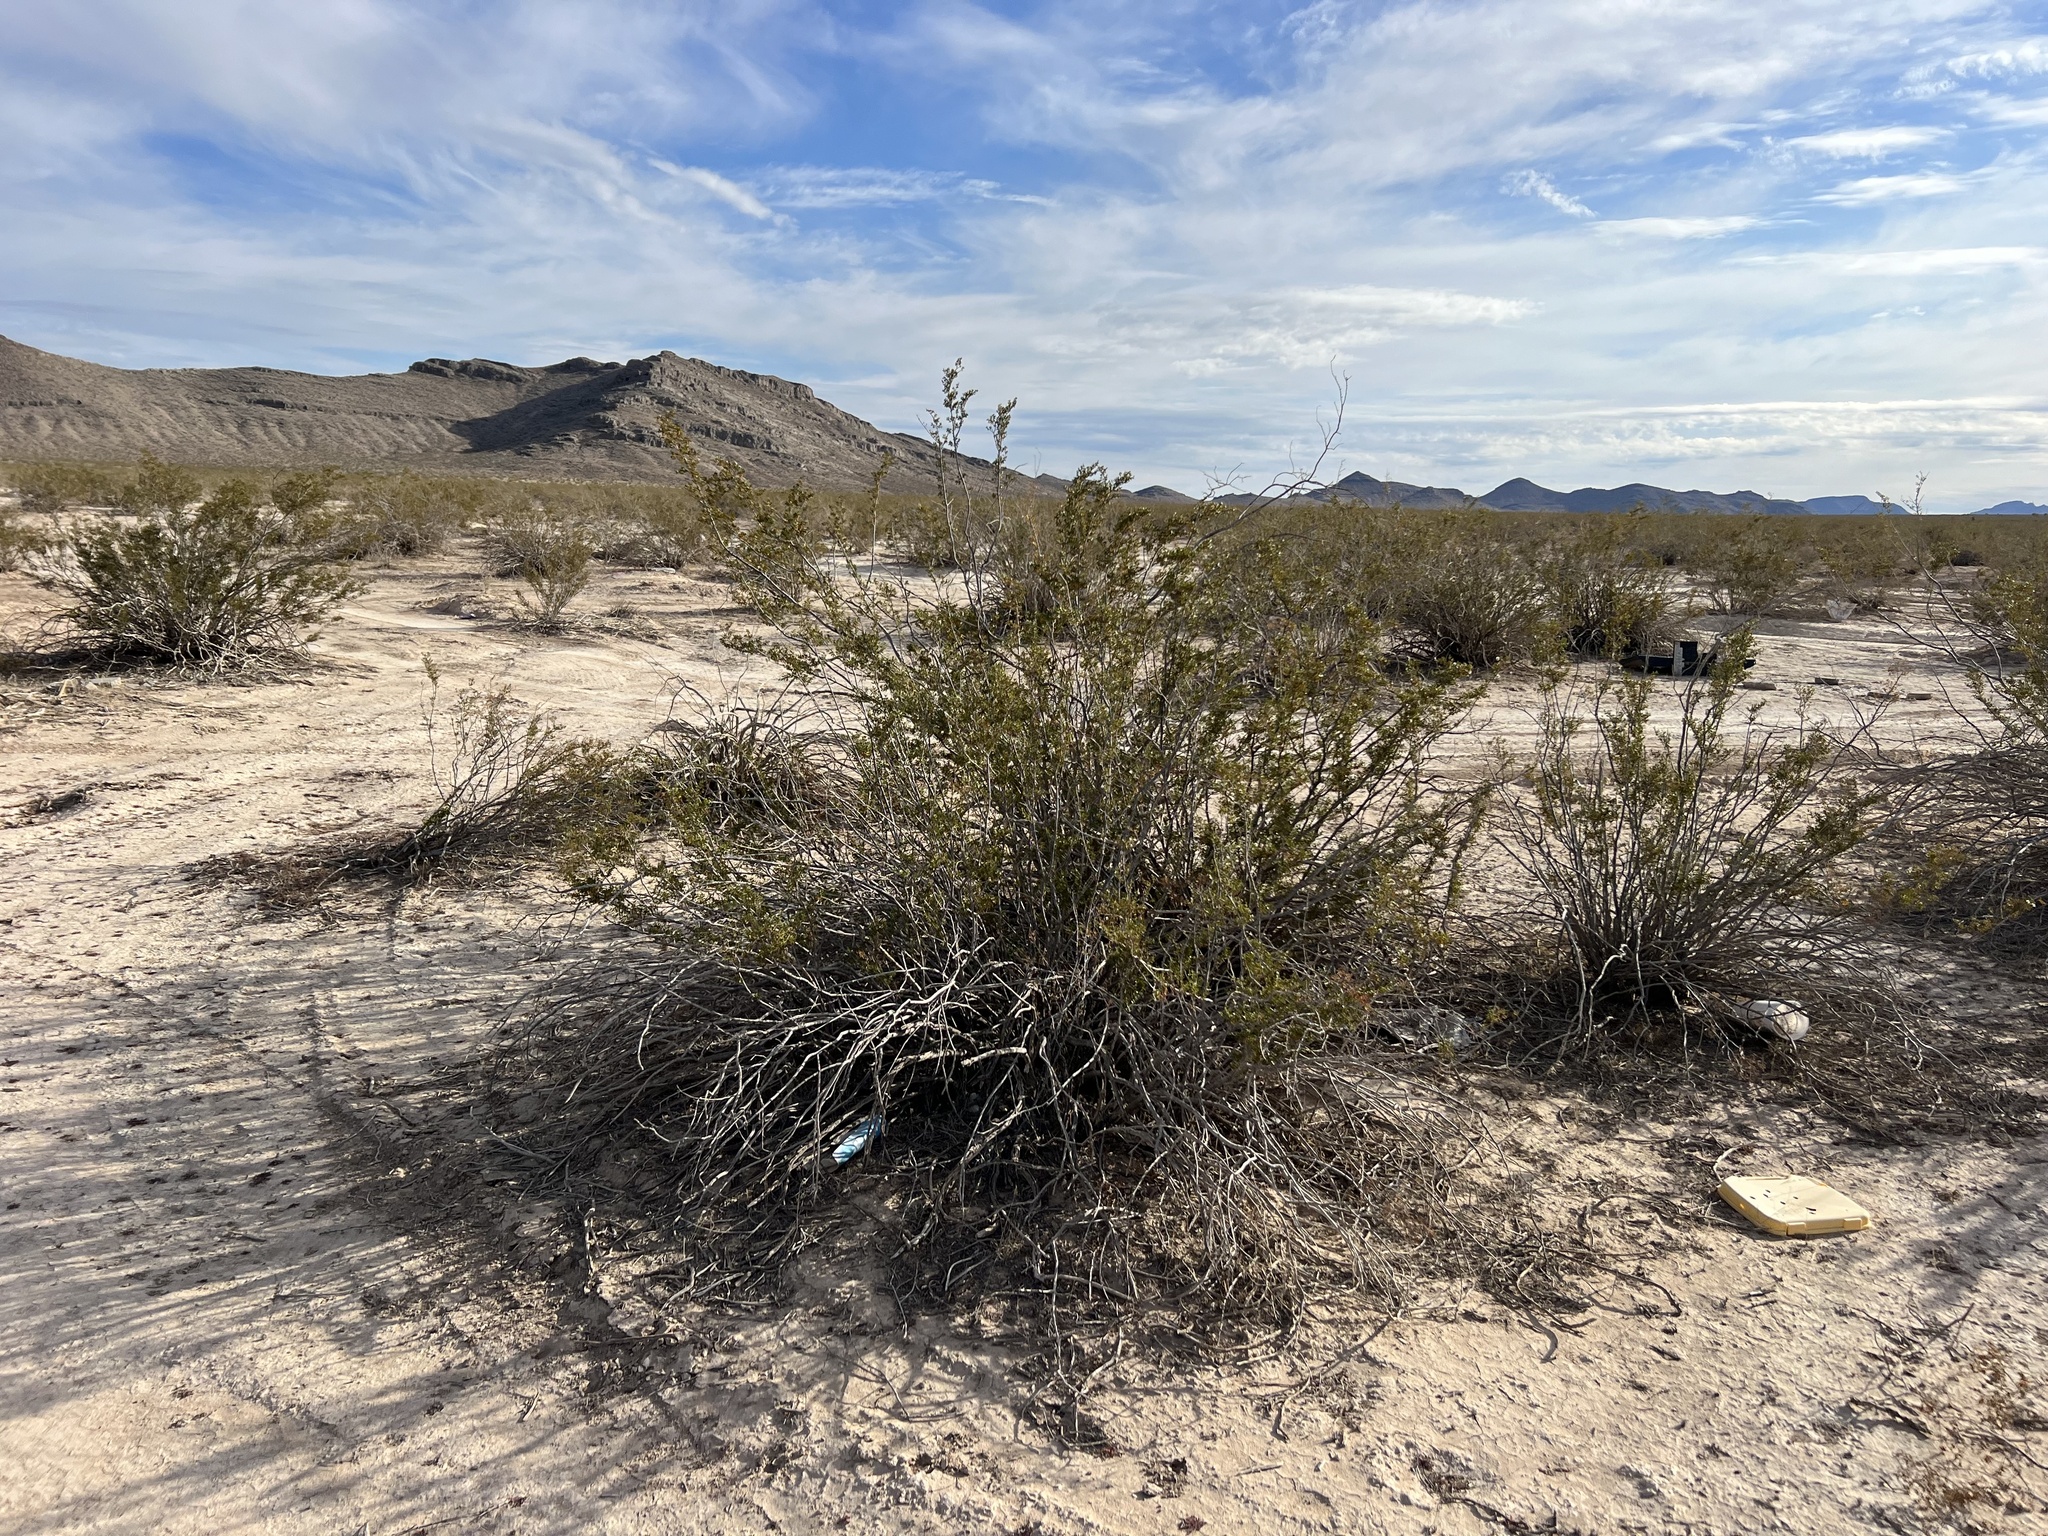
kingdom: Plantae
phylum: Tracheophyta
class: Magnoliopsida
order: Zygophyllales
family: Zygophyllaceae
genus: Larrea
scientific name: Larrea tridentata
